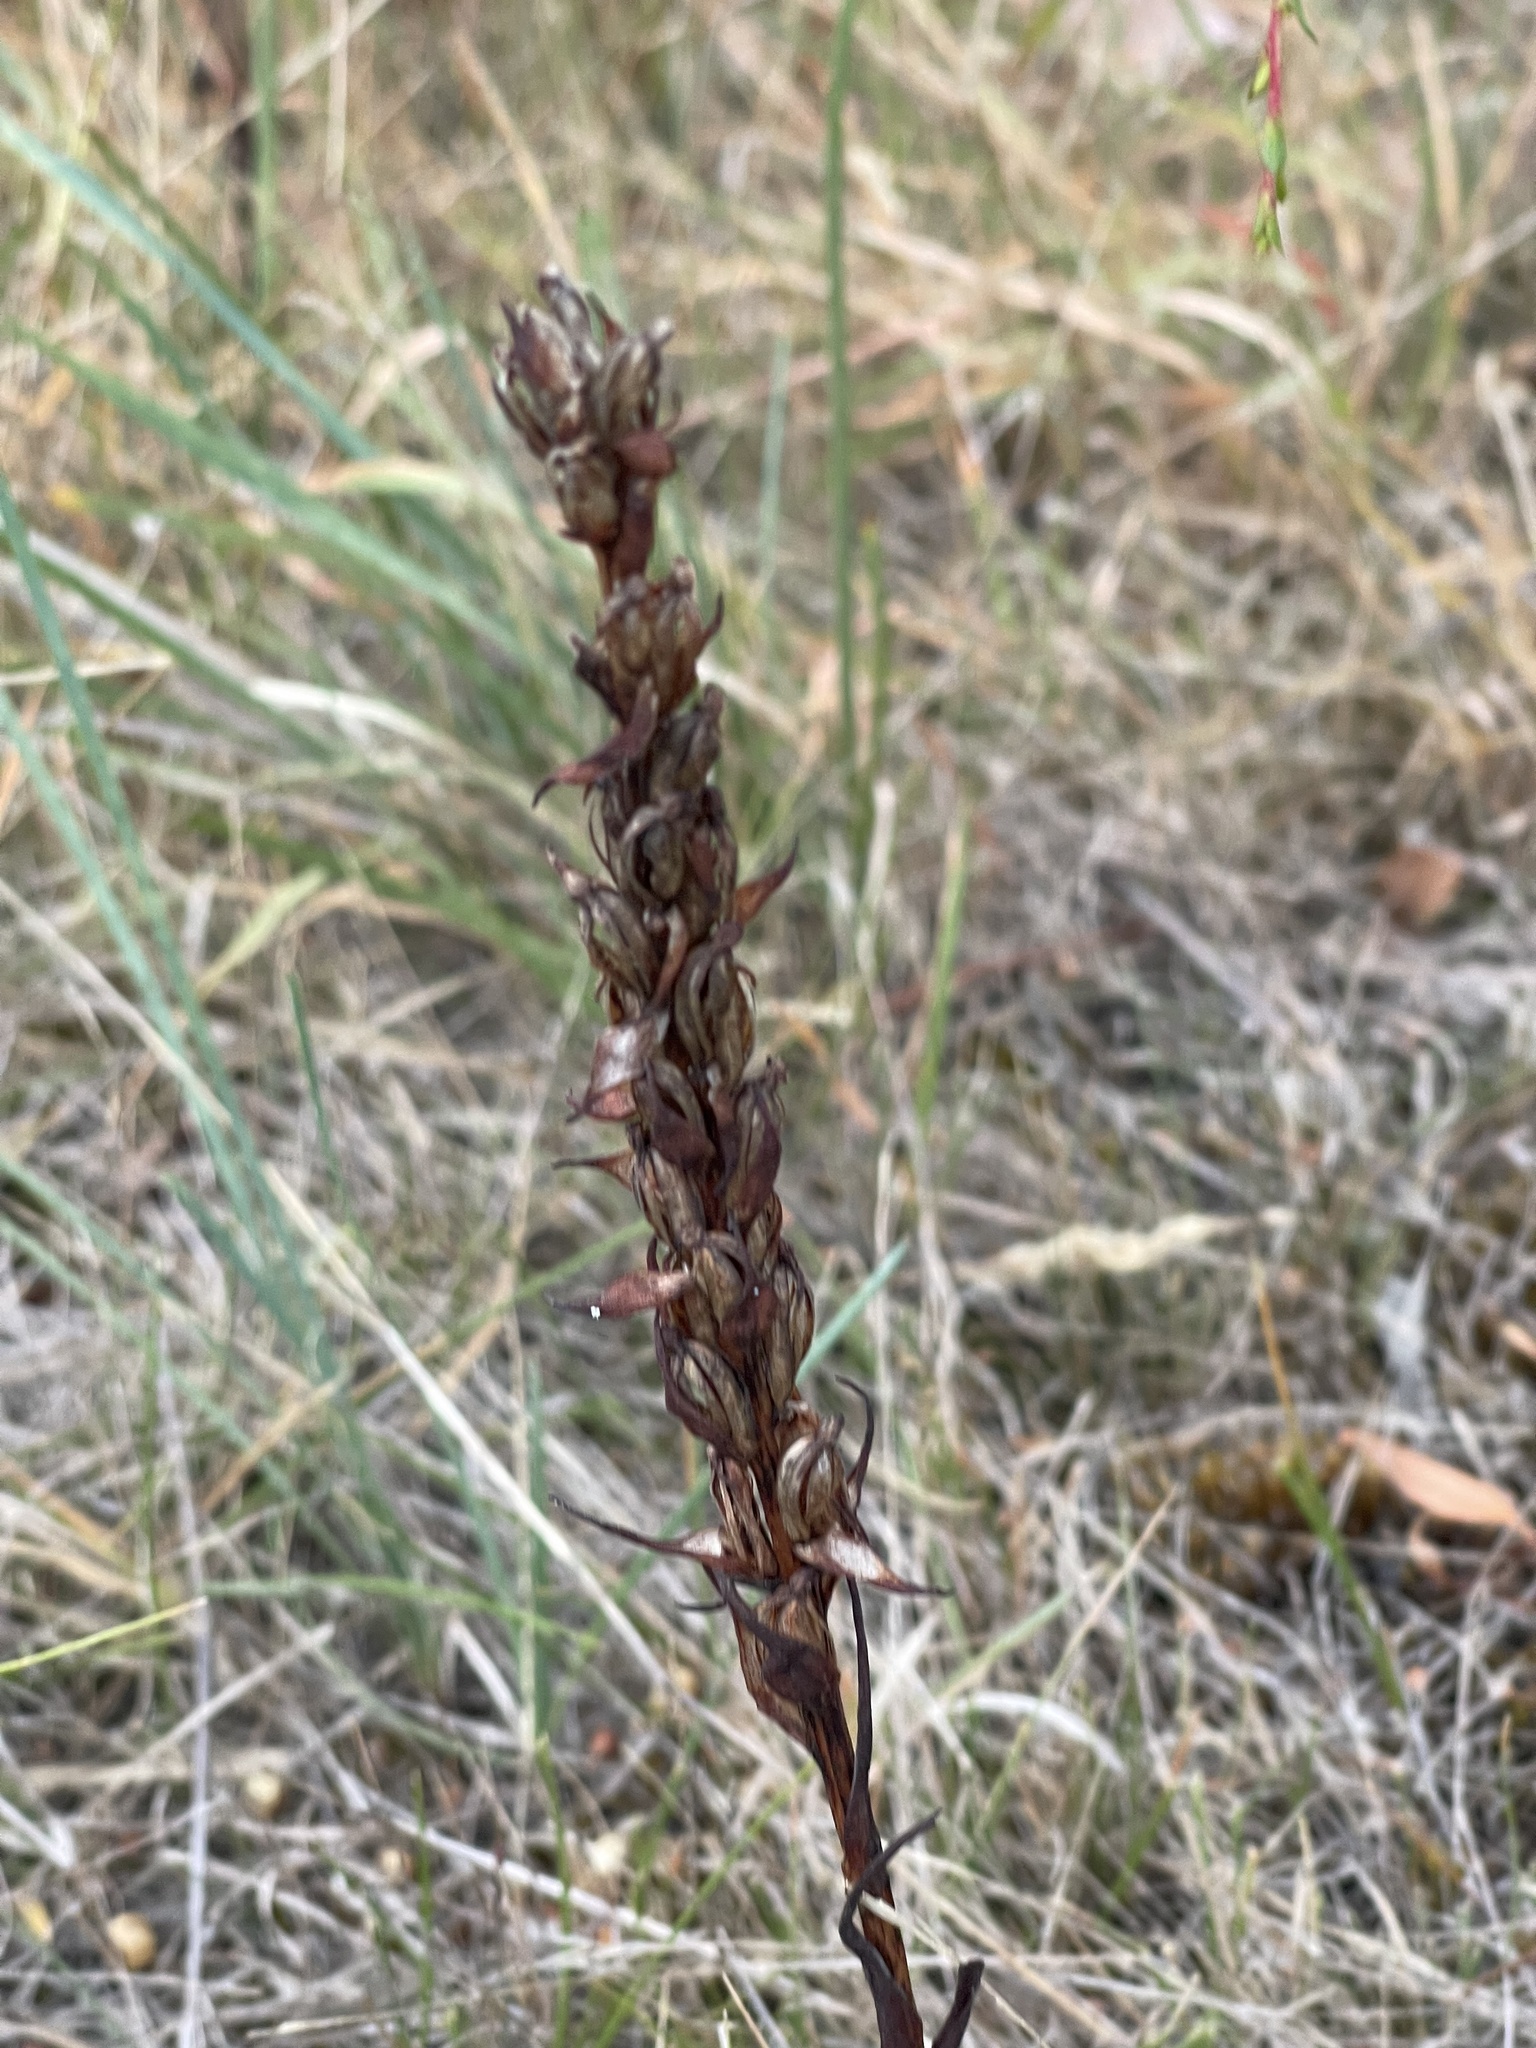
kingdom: Plantae
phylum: Tracheophyta
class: Liliopsida
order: Asparagales
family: Orchidaceae
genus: Disa
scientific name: Disa bracteata
